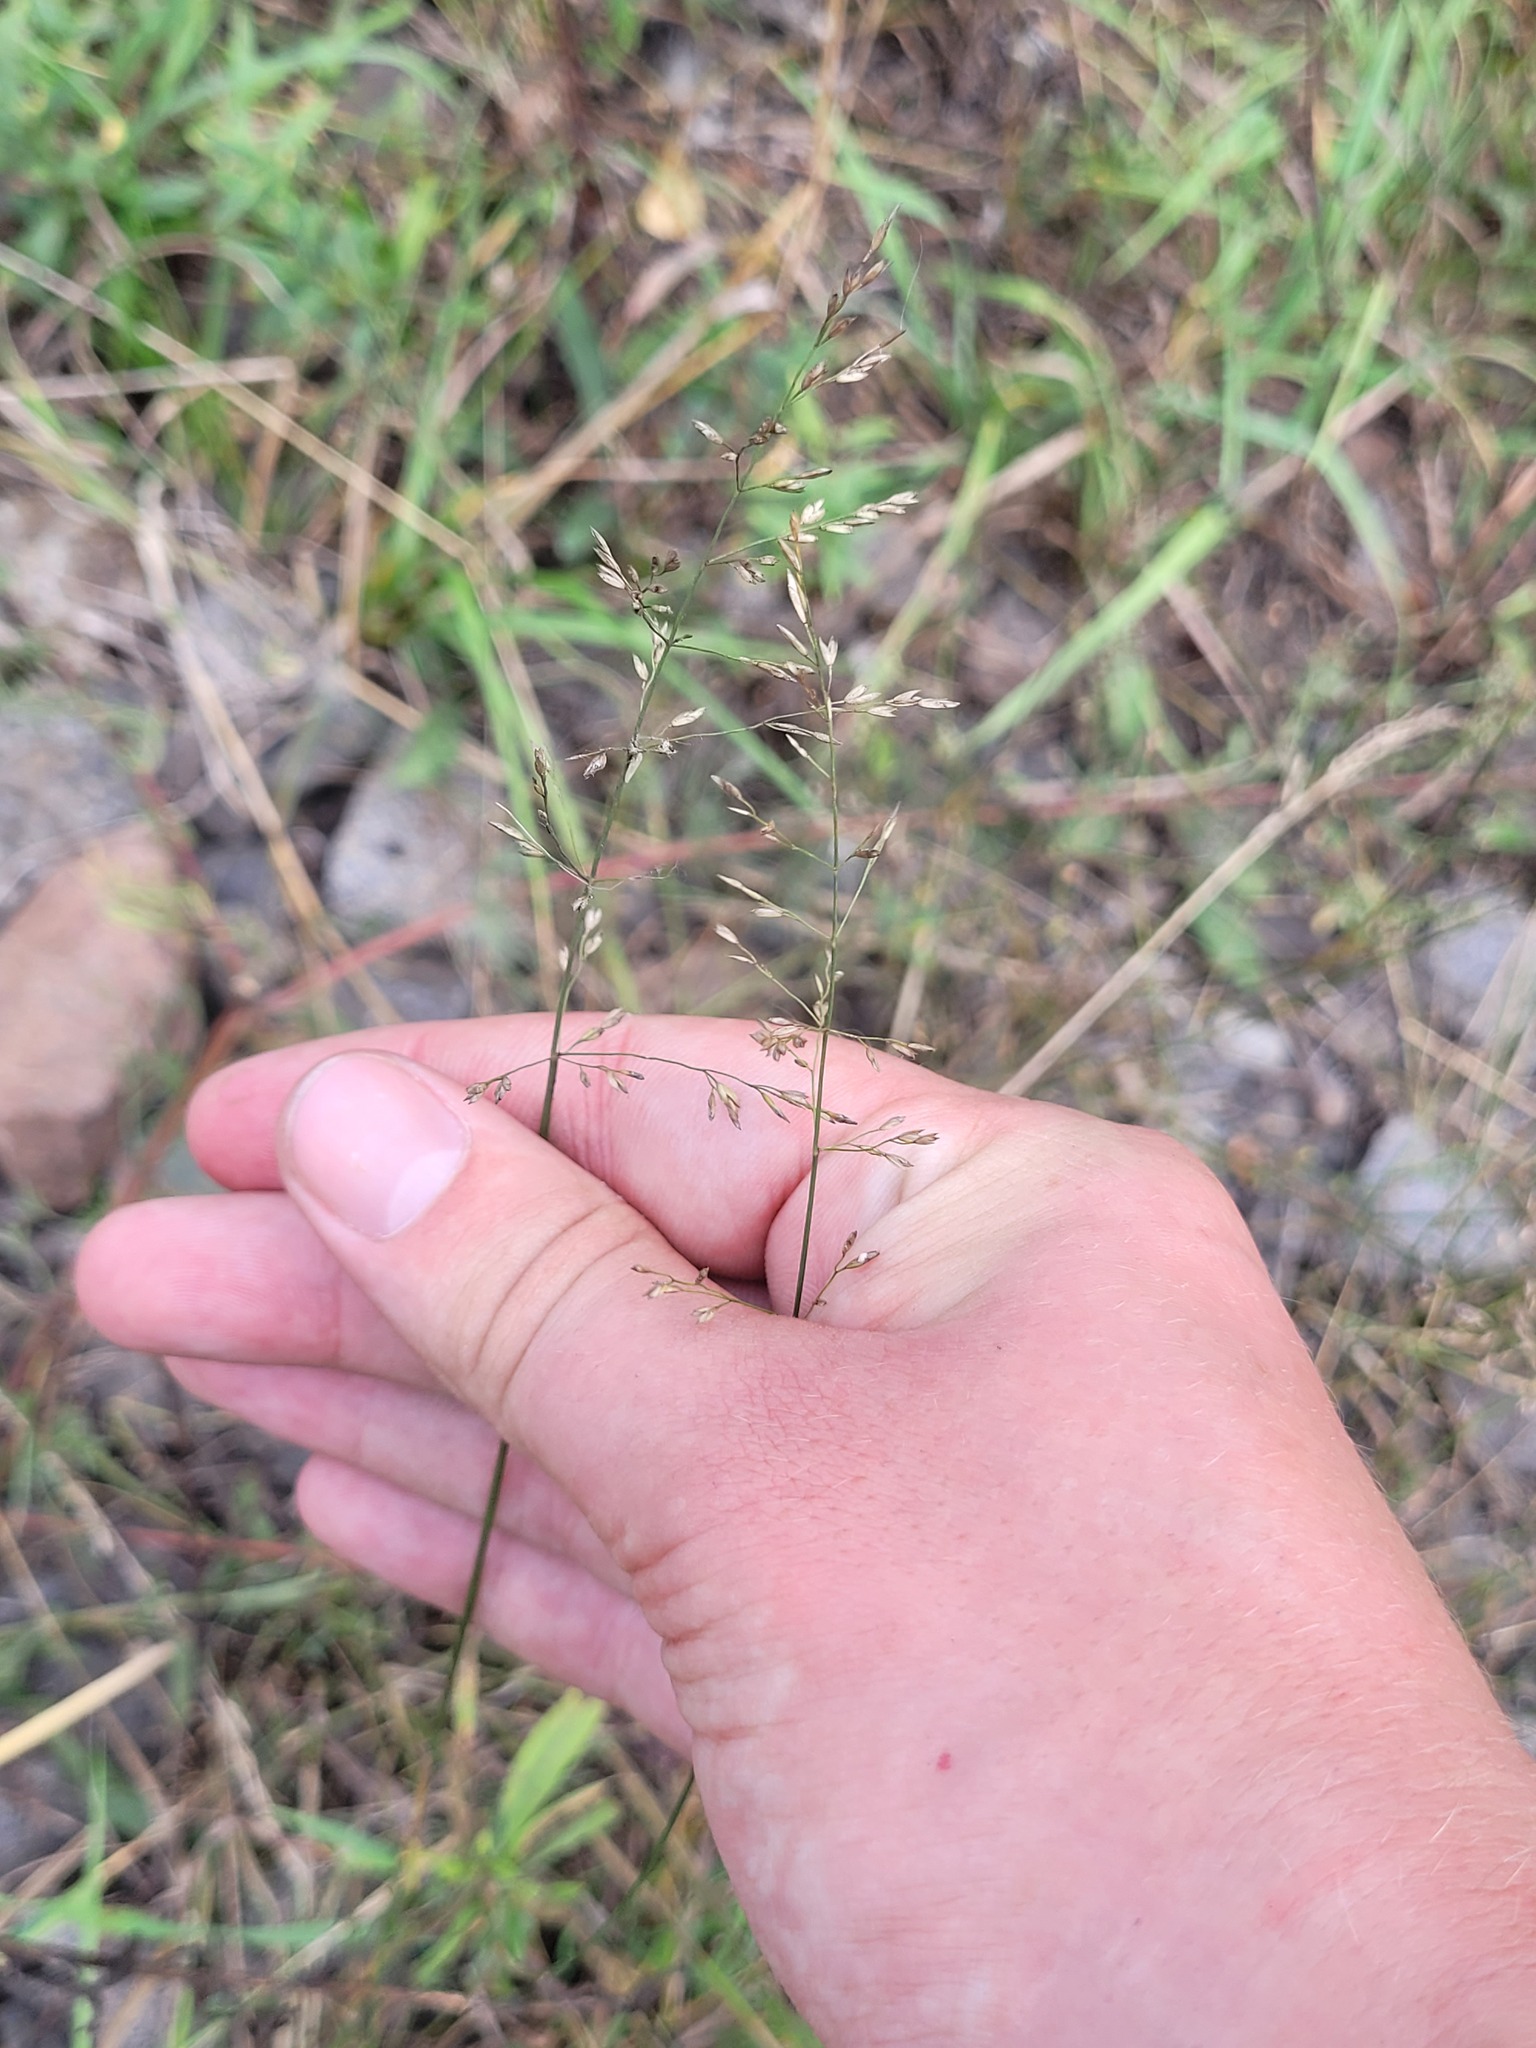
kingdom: Plantae
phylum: Tracheophyta
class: Liliopsida
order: Poales
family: Poaceae
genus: Poa
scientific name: Poa compressa
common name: Canada bluegrass
